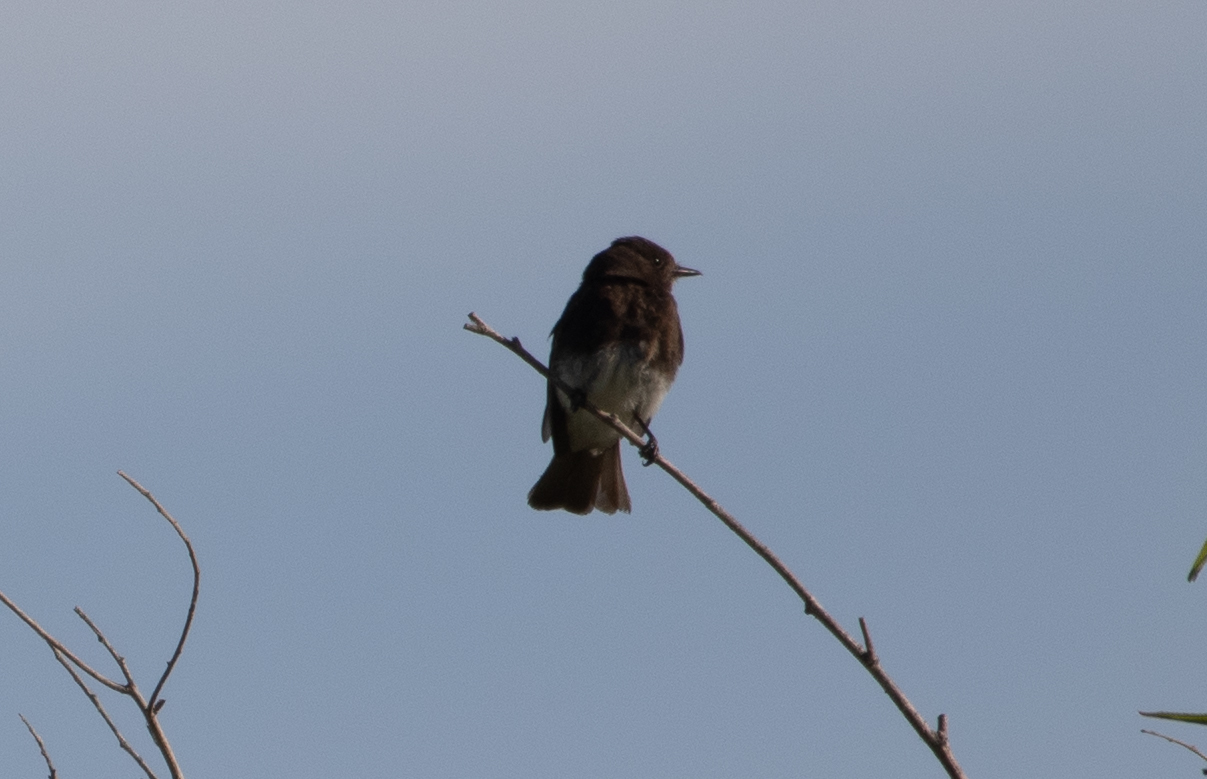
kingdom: Animalia
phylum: Chordata
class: Aves
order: Passeriformes
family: Tyrannidae
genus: Sayornis
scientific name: Sayornis nigricans
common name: Black phoebe
